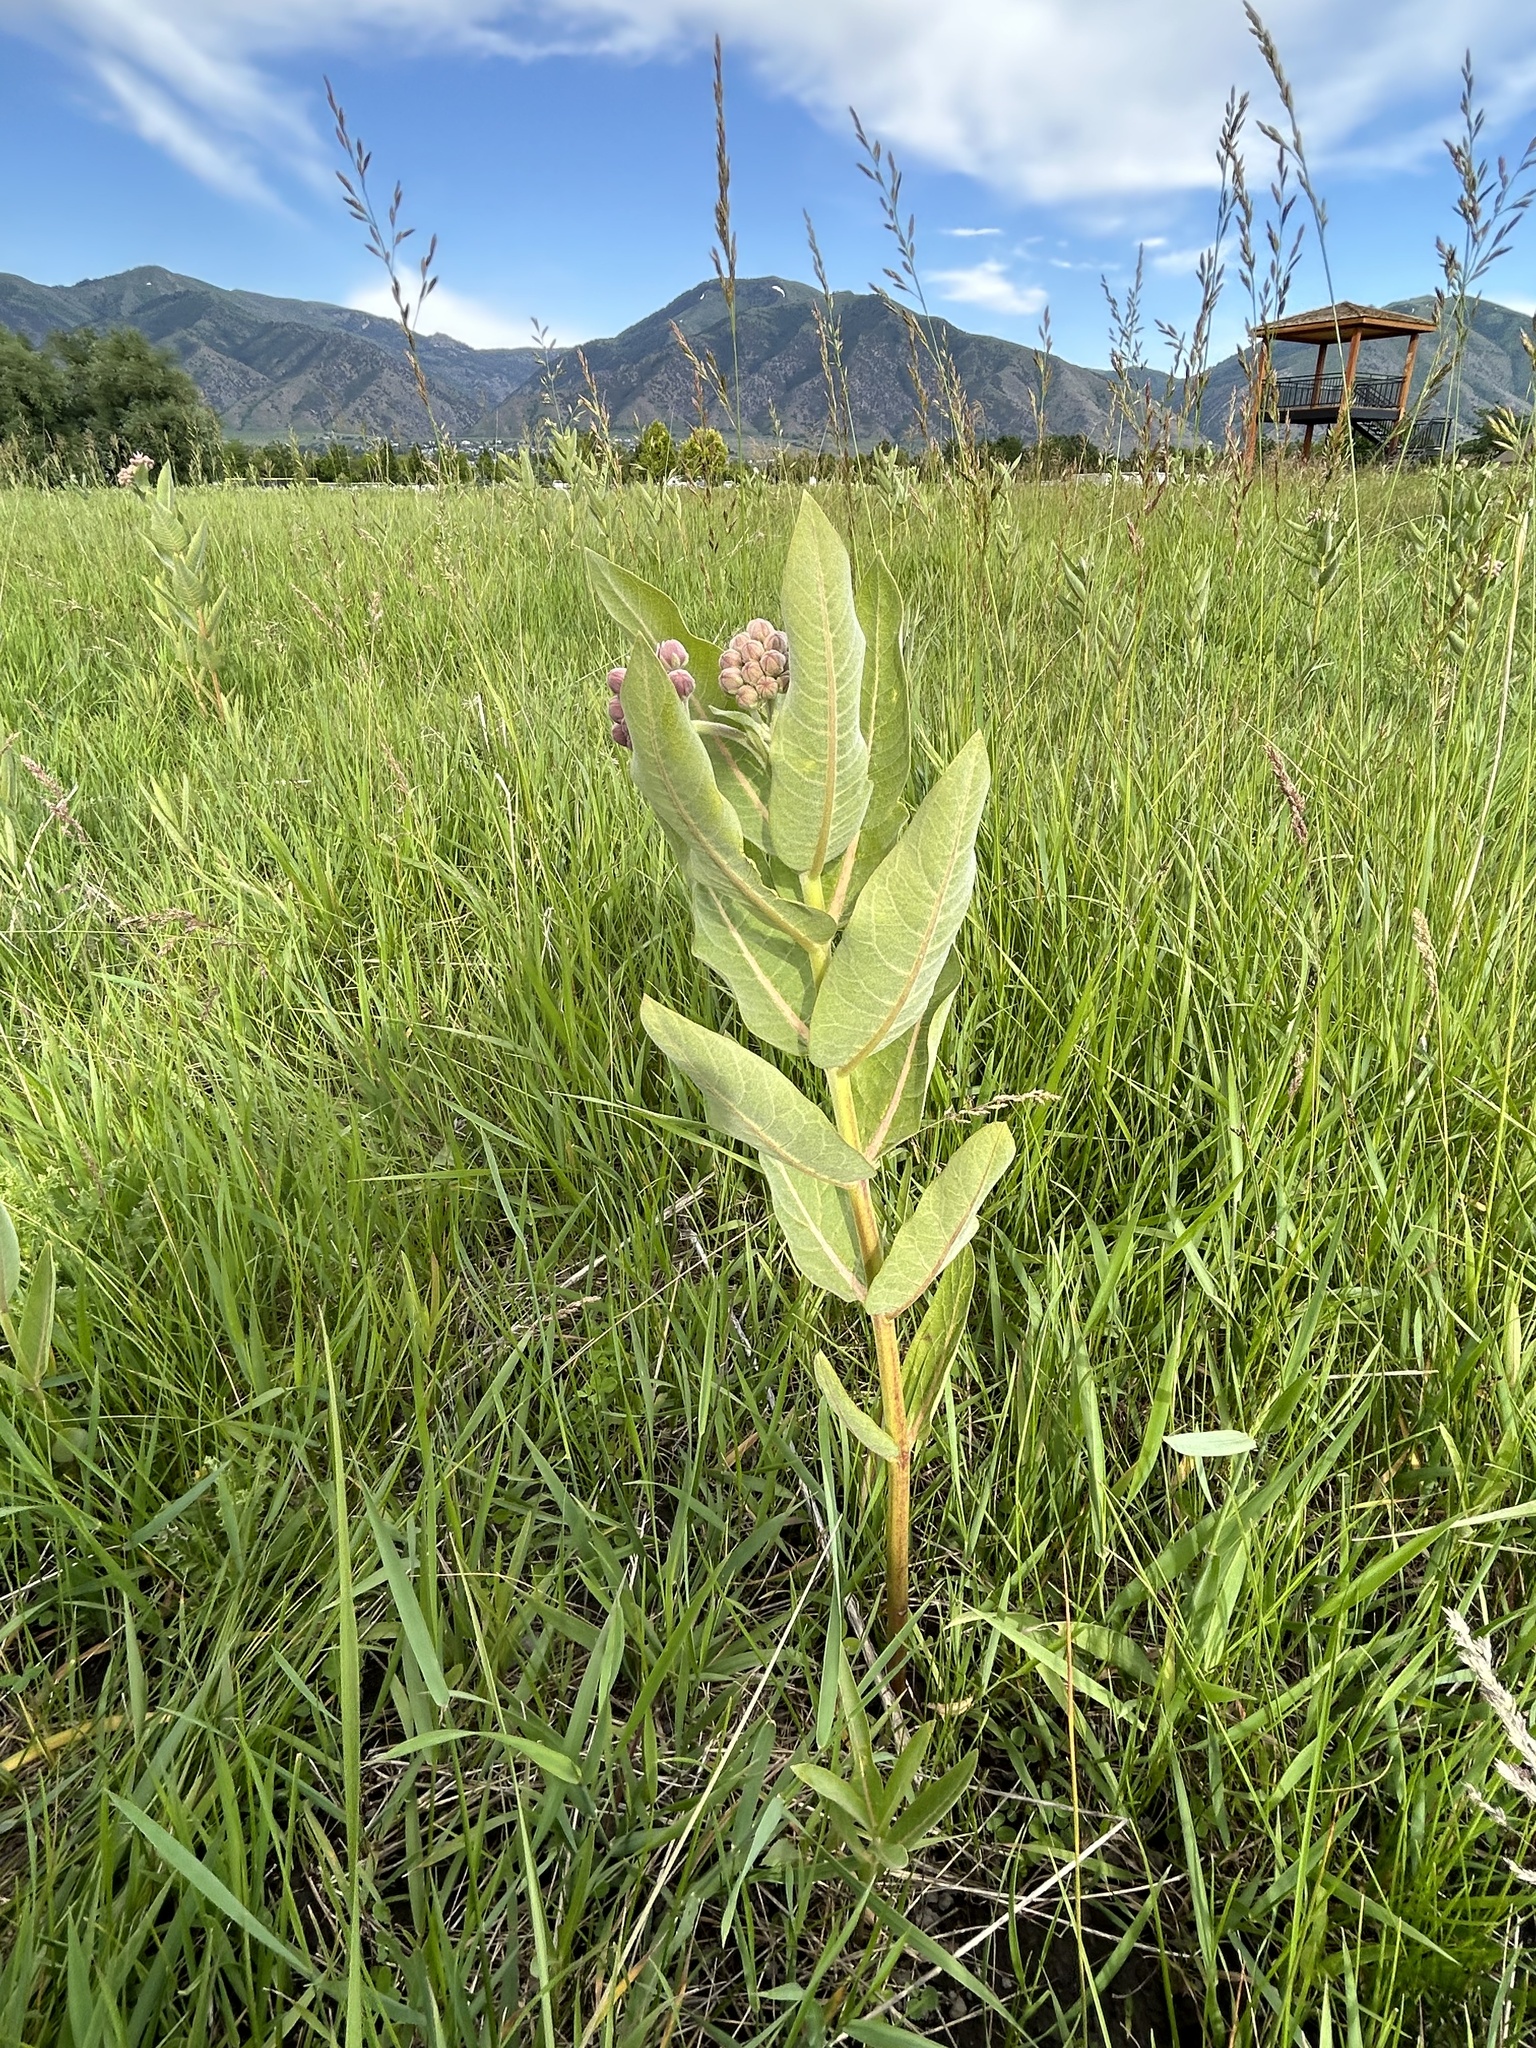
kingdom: Plantae
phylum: Tracheophyta
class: Magnoliopsida
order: Gentianales
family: Apocynaceae
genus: Asclepias
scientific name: Asclepias speciosa
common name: Showy milkweed
